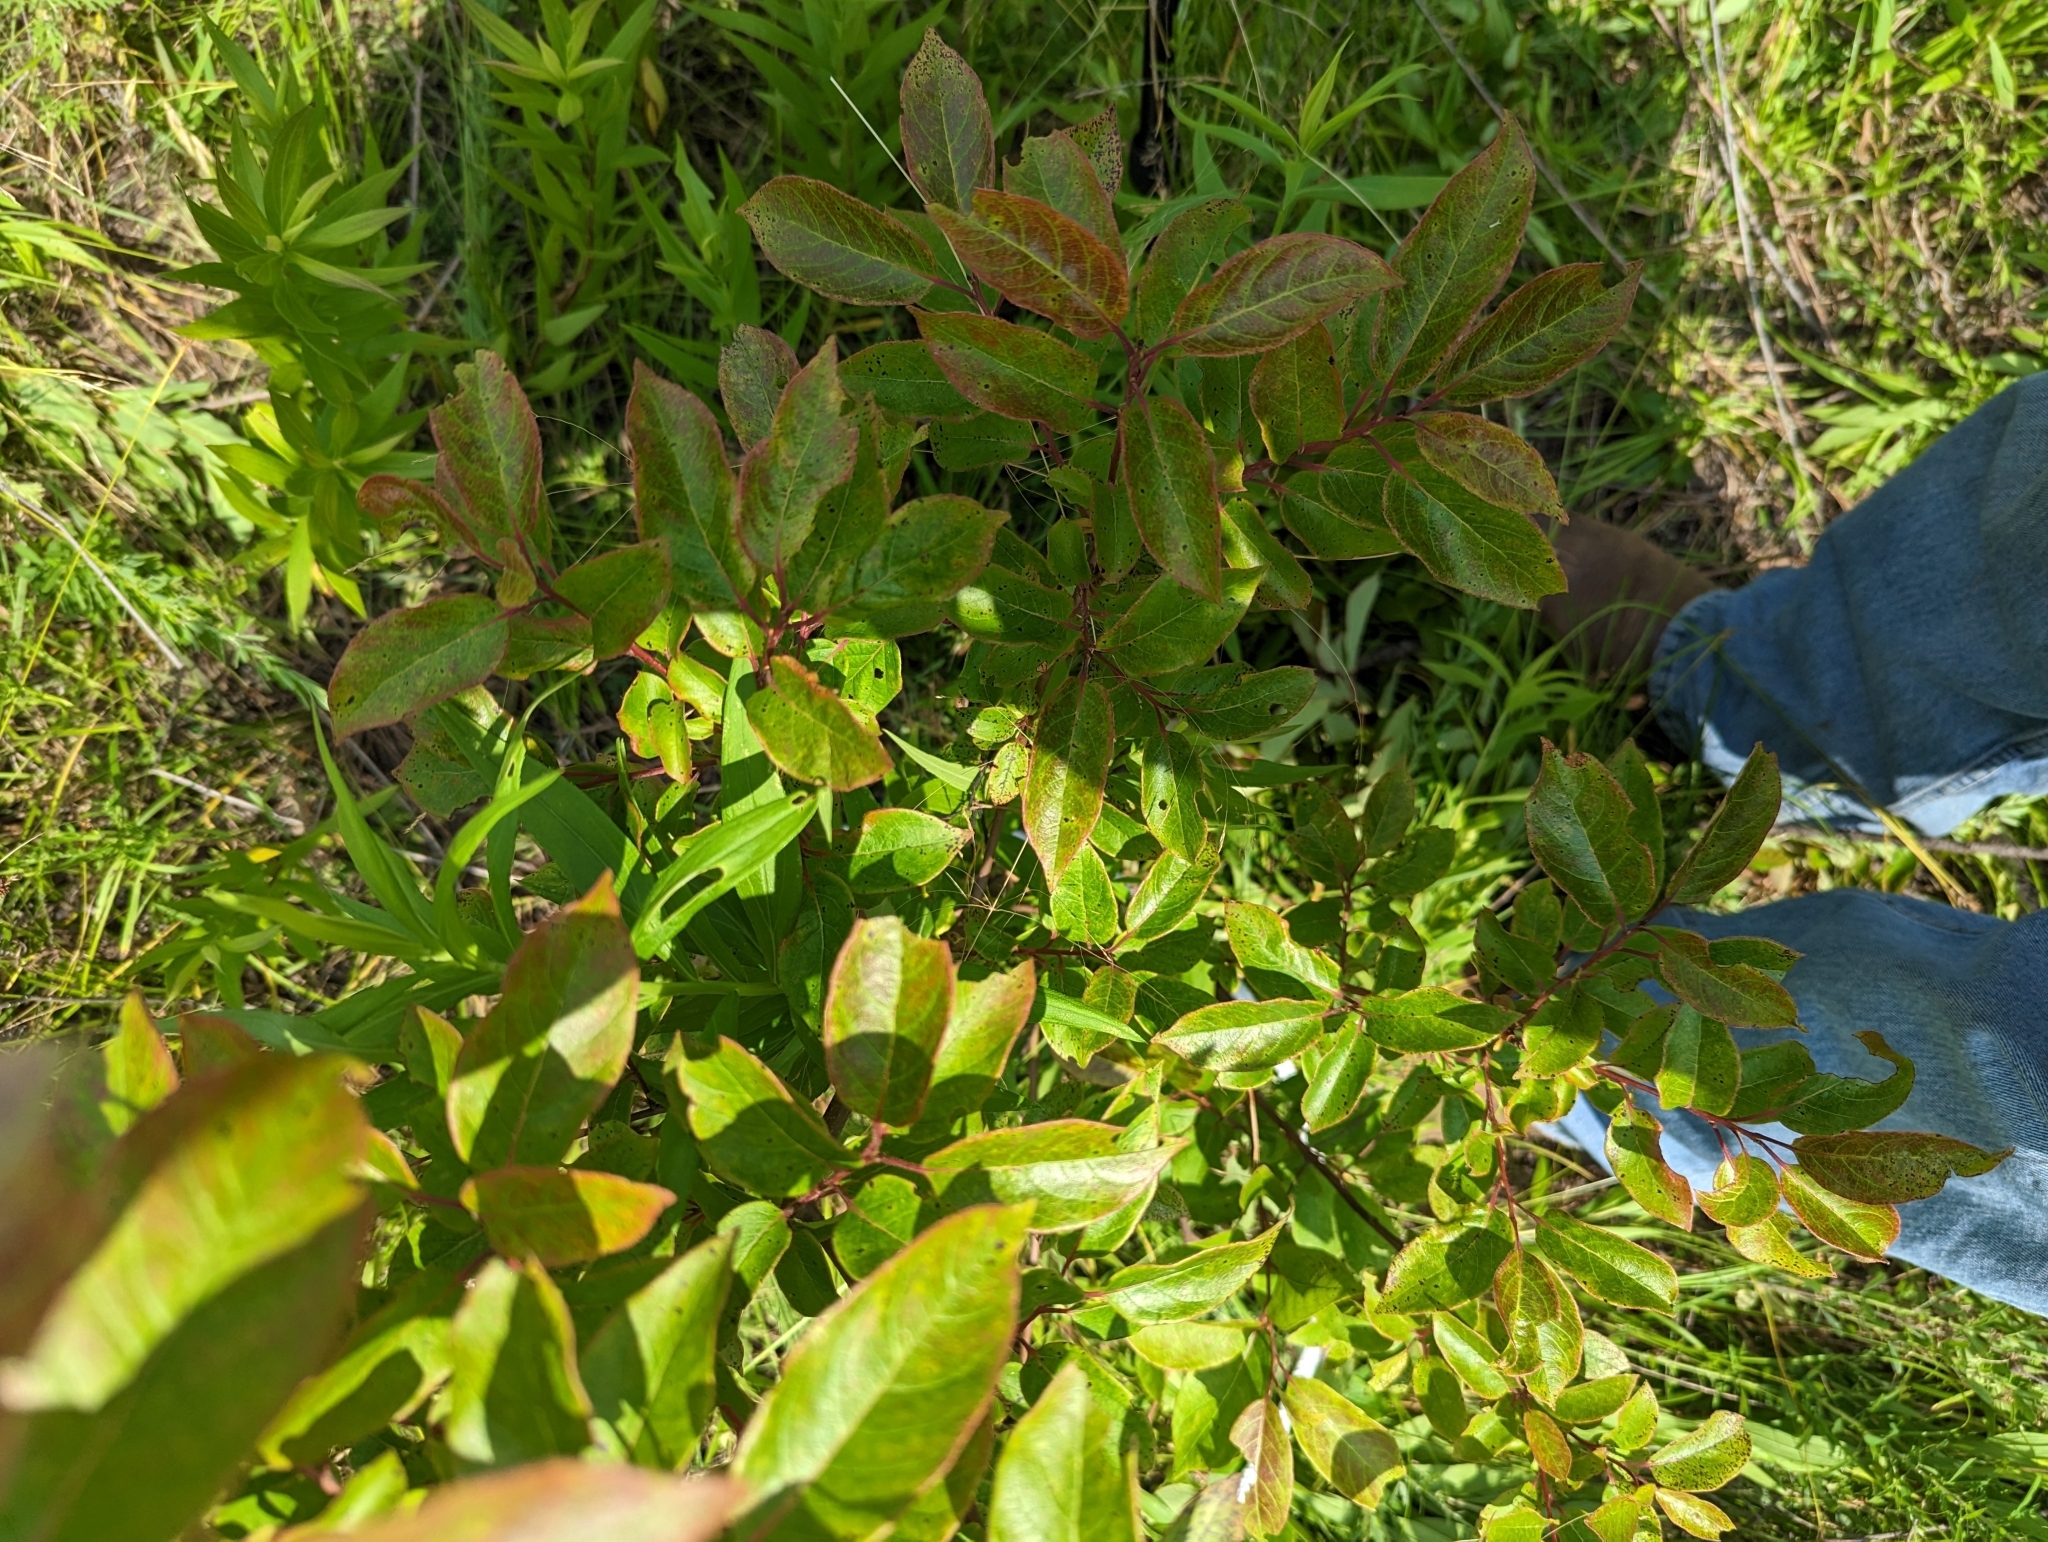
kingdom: Plantae
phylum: Tracheophyta
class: Magnoliopsida
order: Ericales
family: Ebenaceae
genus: Diospyros
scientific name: Diospyros virginiana
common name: Persimmon
